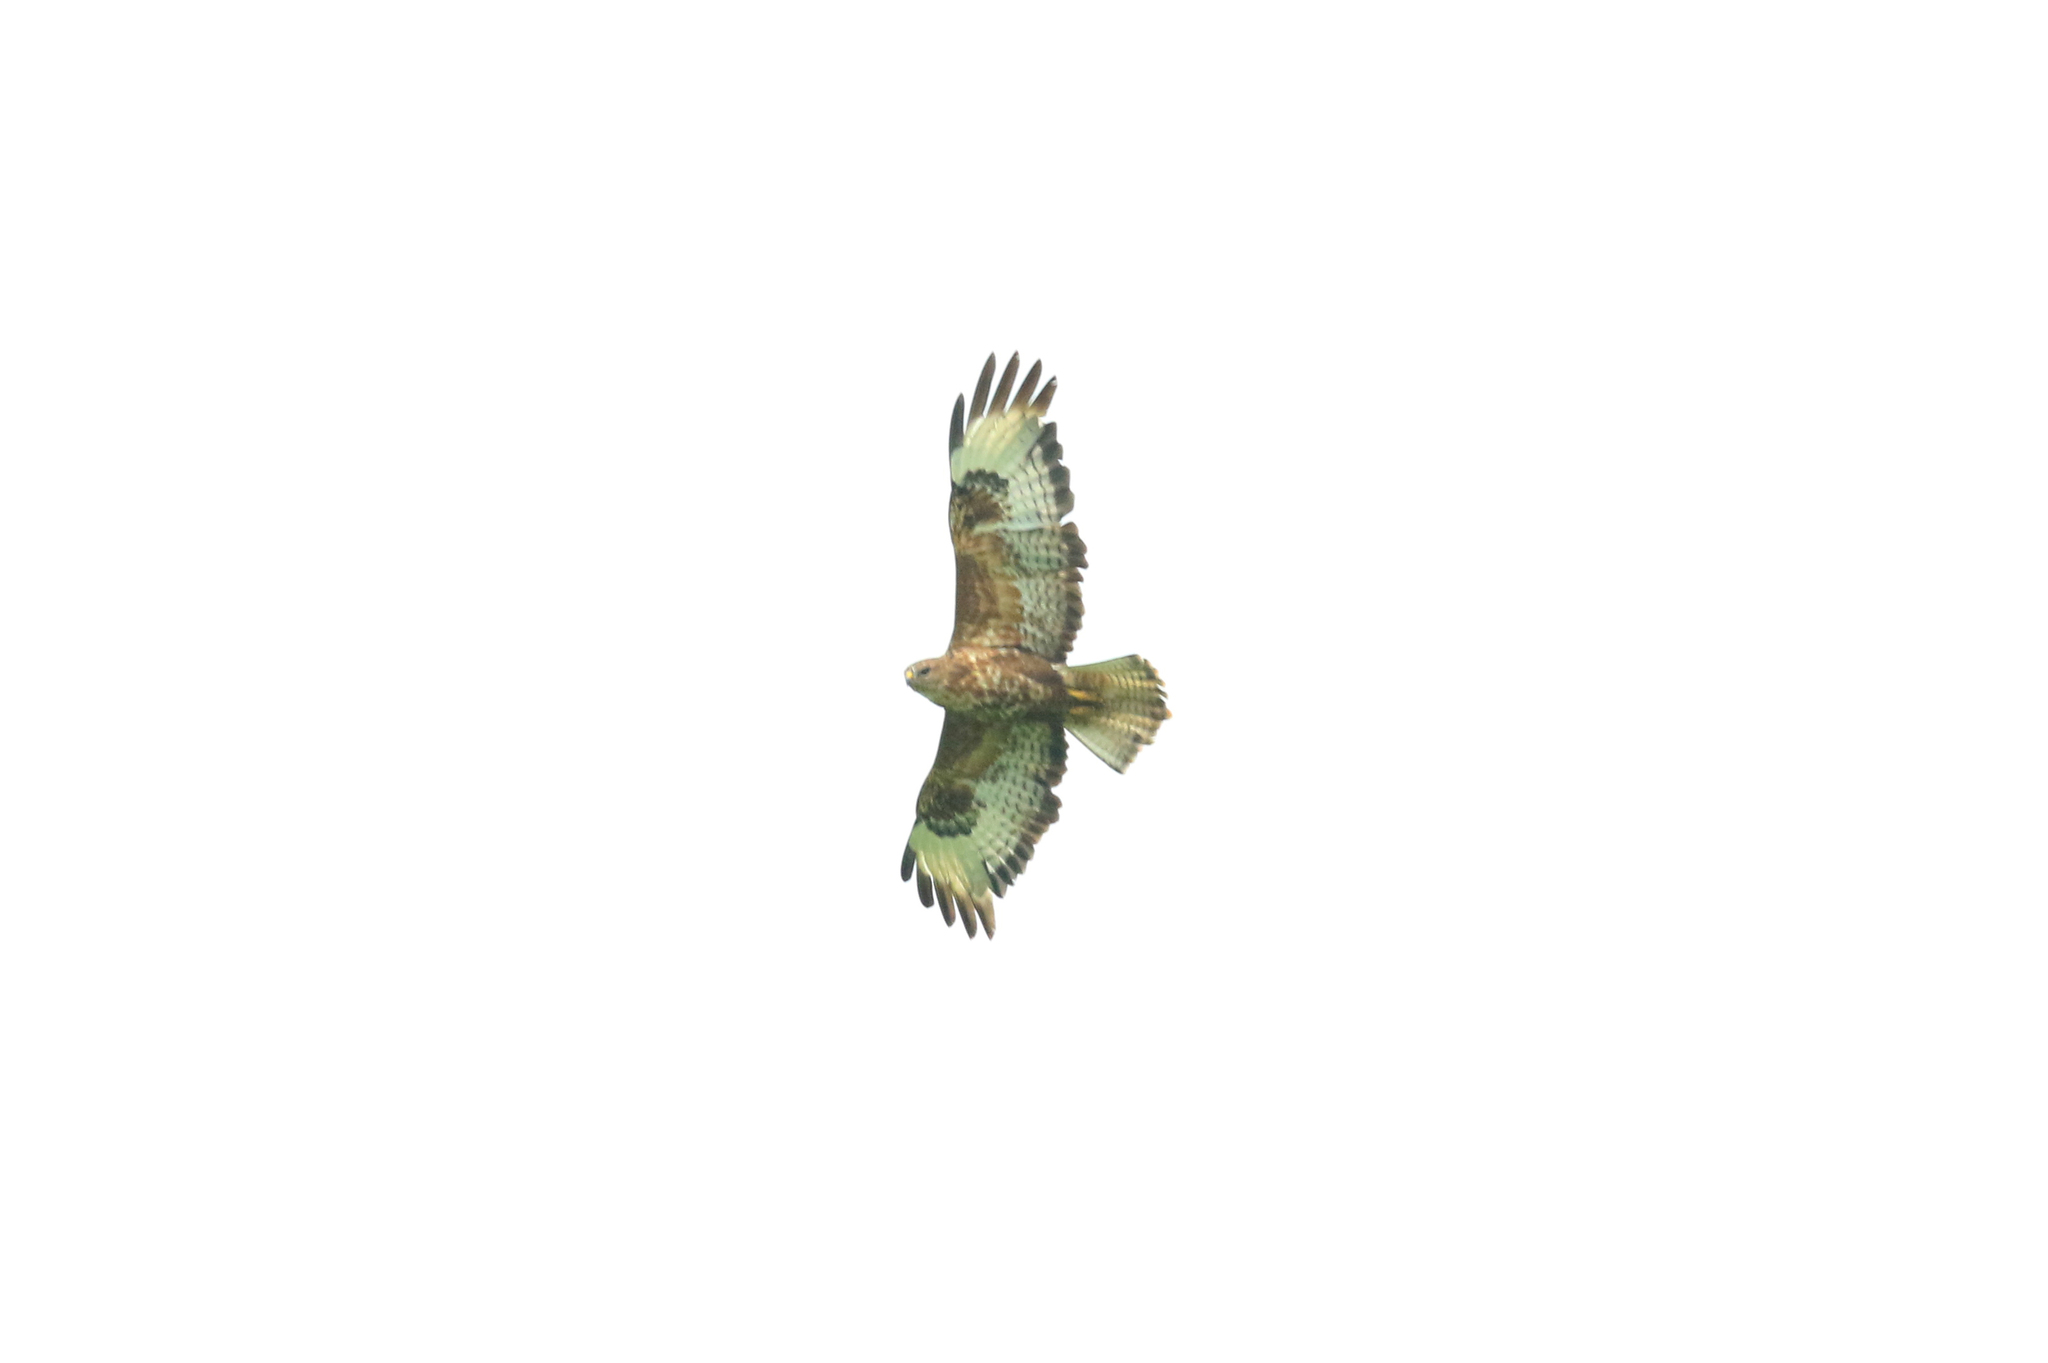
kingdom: Animalia
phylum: Chordata
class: Aves
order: Accipitriformes
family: Accipitridae
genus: Buteo
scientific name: Buteo buteo
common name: Common buzzard
